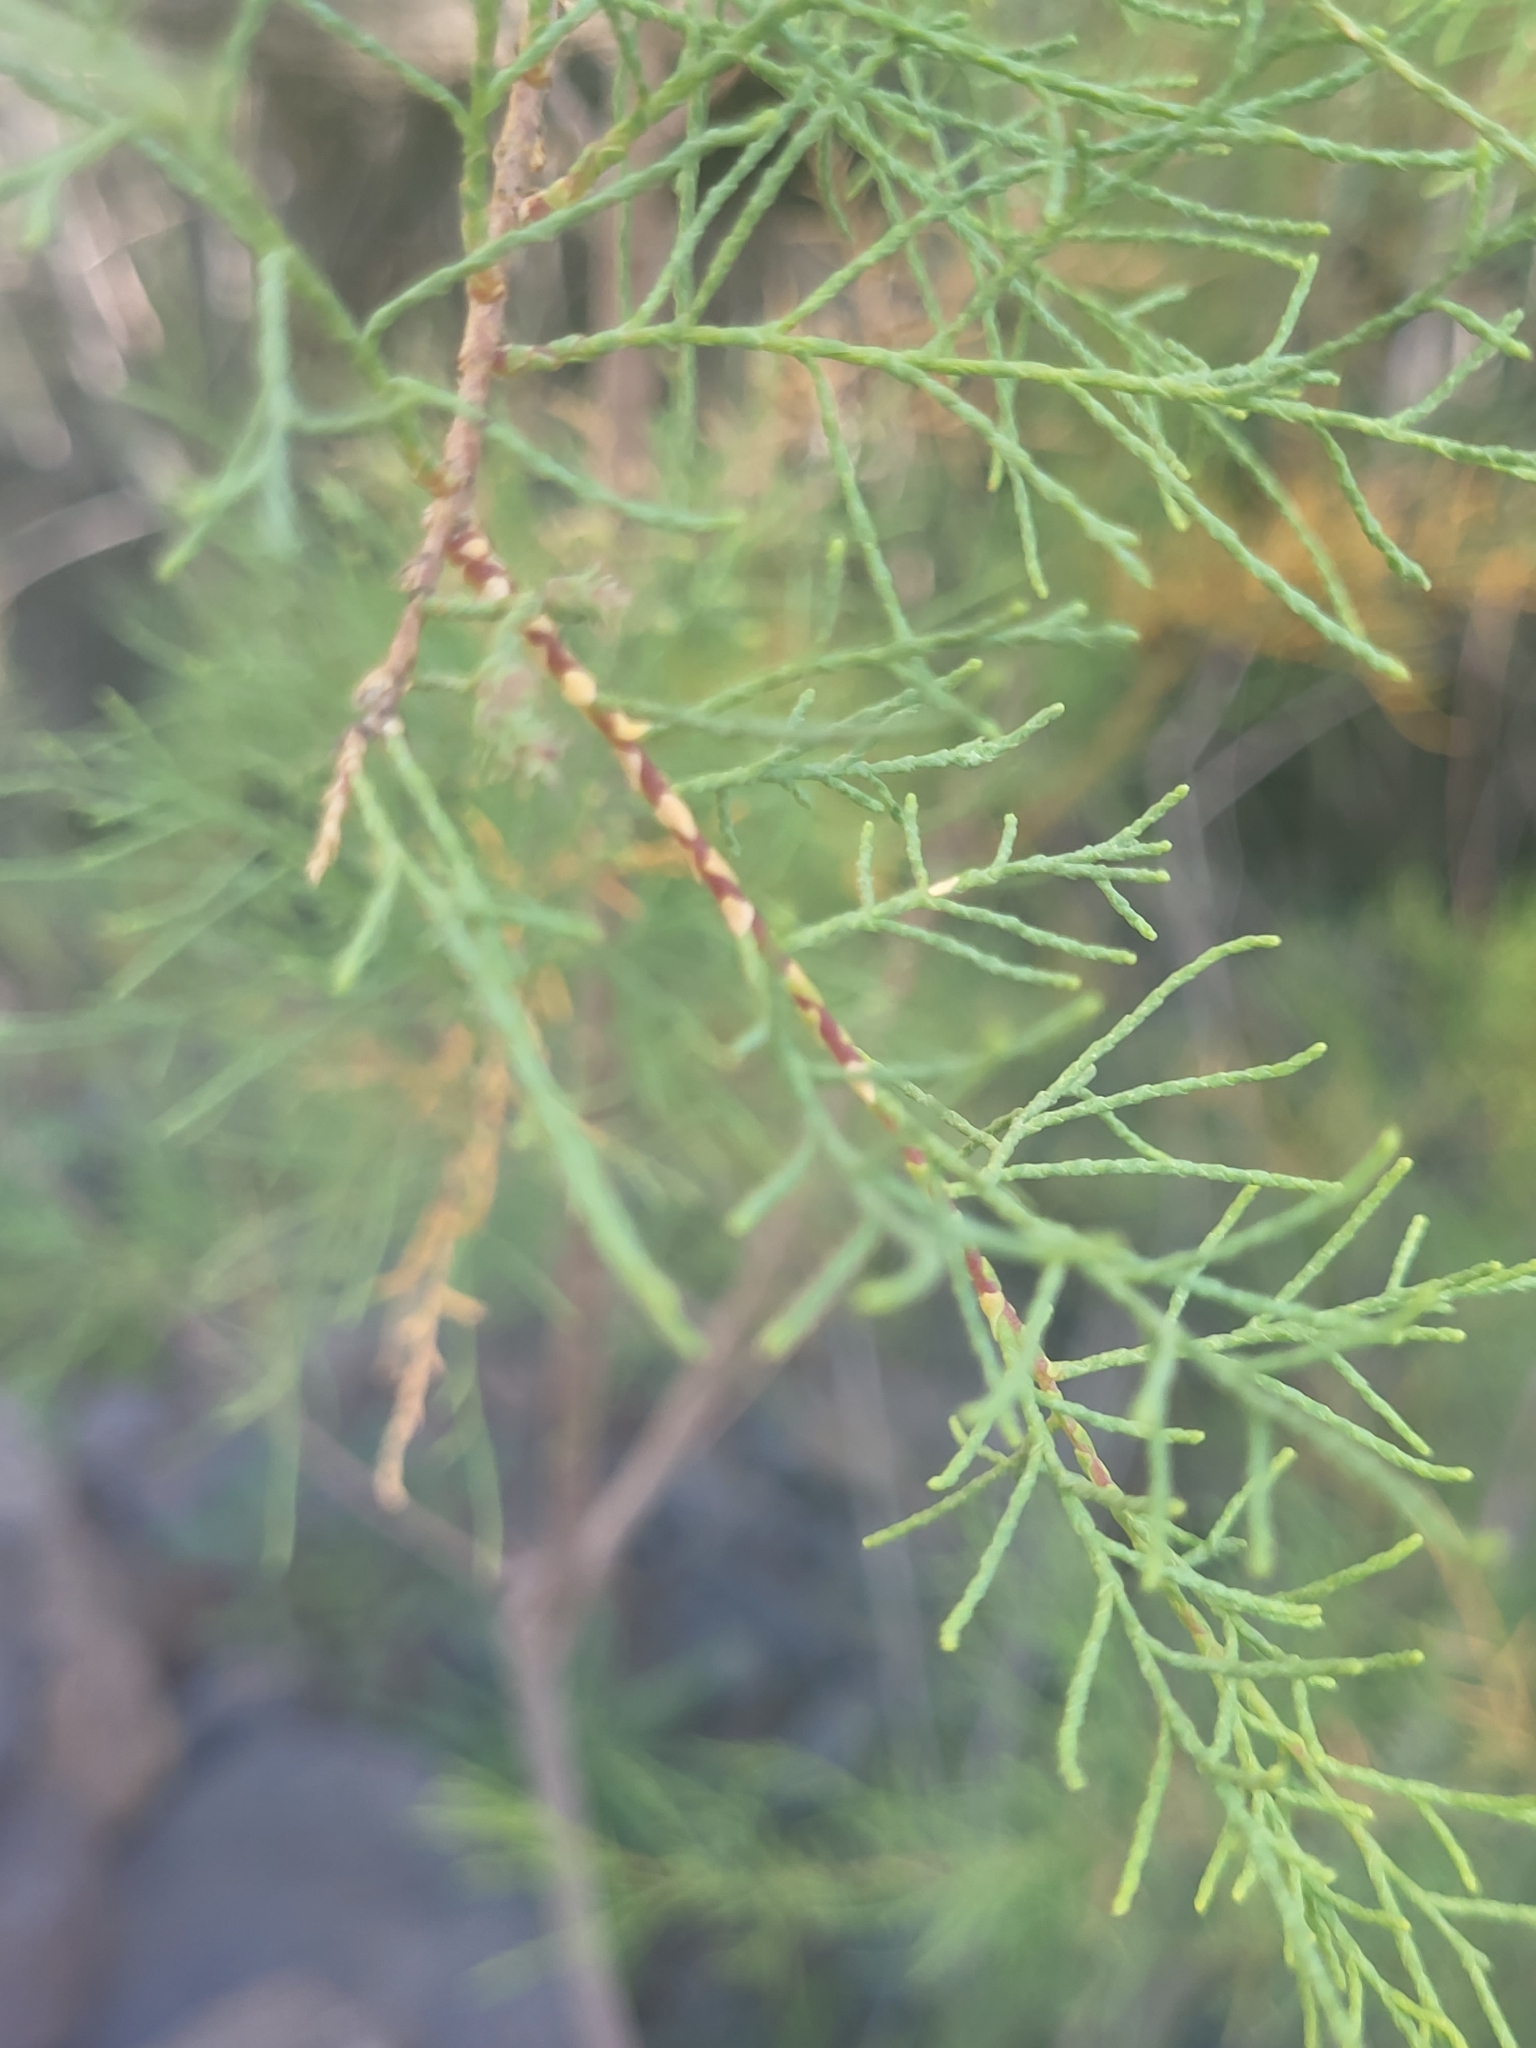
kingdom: Plantae
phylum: Tracheophyta
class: Magnoliopsida
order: Caryophyllales
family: Tamaricaceae
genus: Tamarix
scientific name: Tamarix canariensis
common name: Canary island tamarisk
